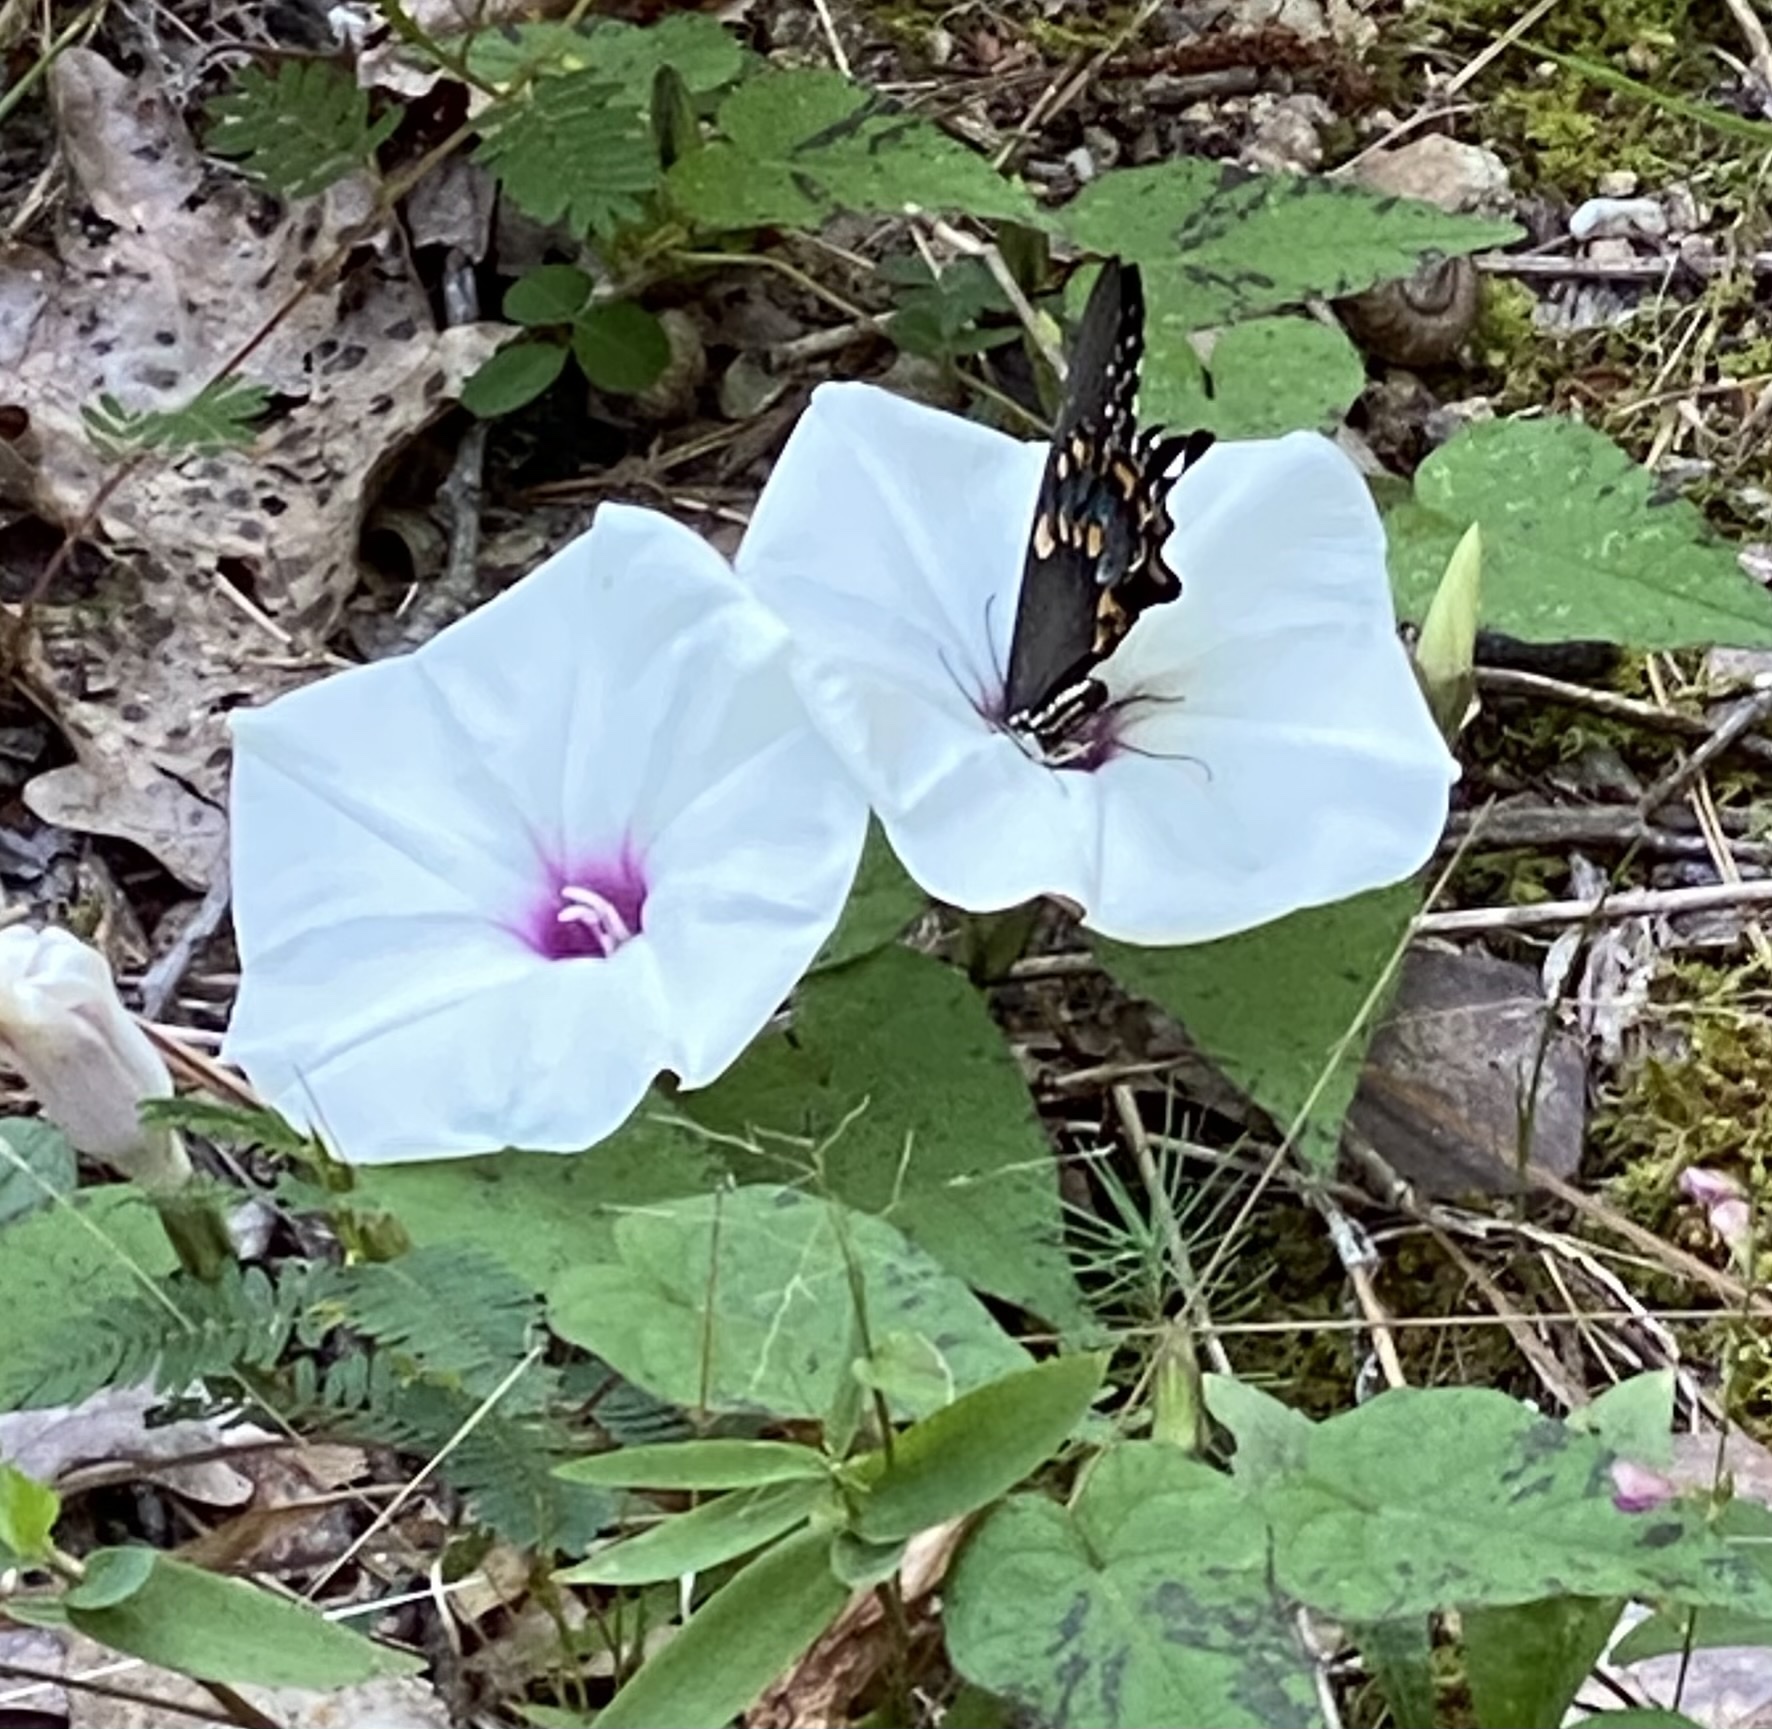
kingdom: Animalia
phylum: Arthropoda
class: Insecta
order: Lepidoptera
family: Papilionidae
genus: Papilio
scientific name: Papilio troilus
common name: Spicebush swallowtail
